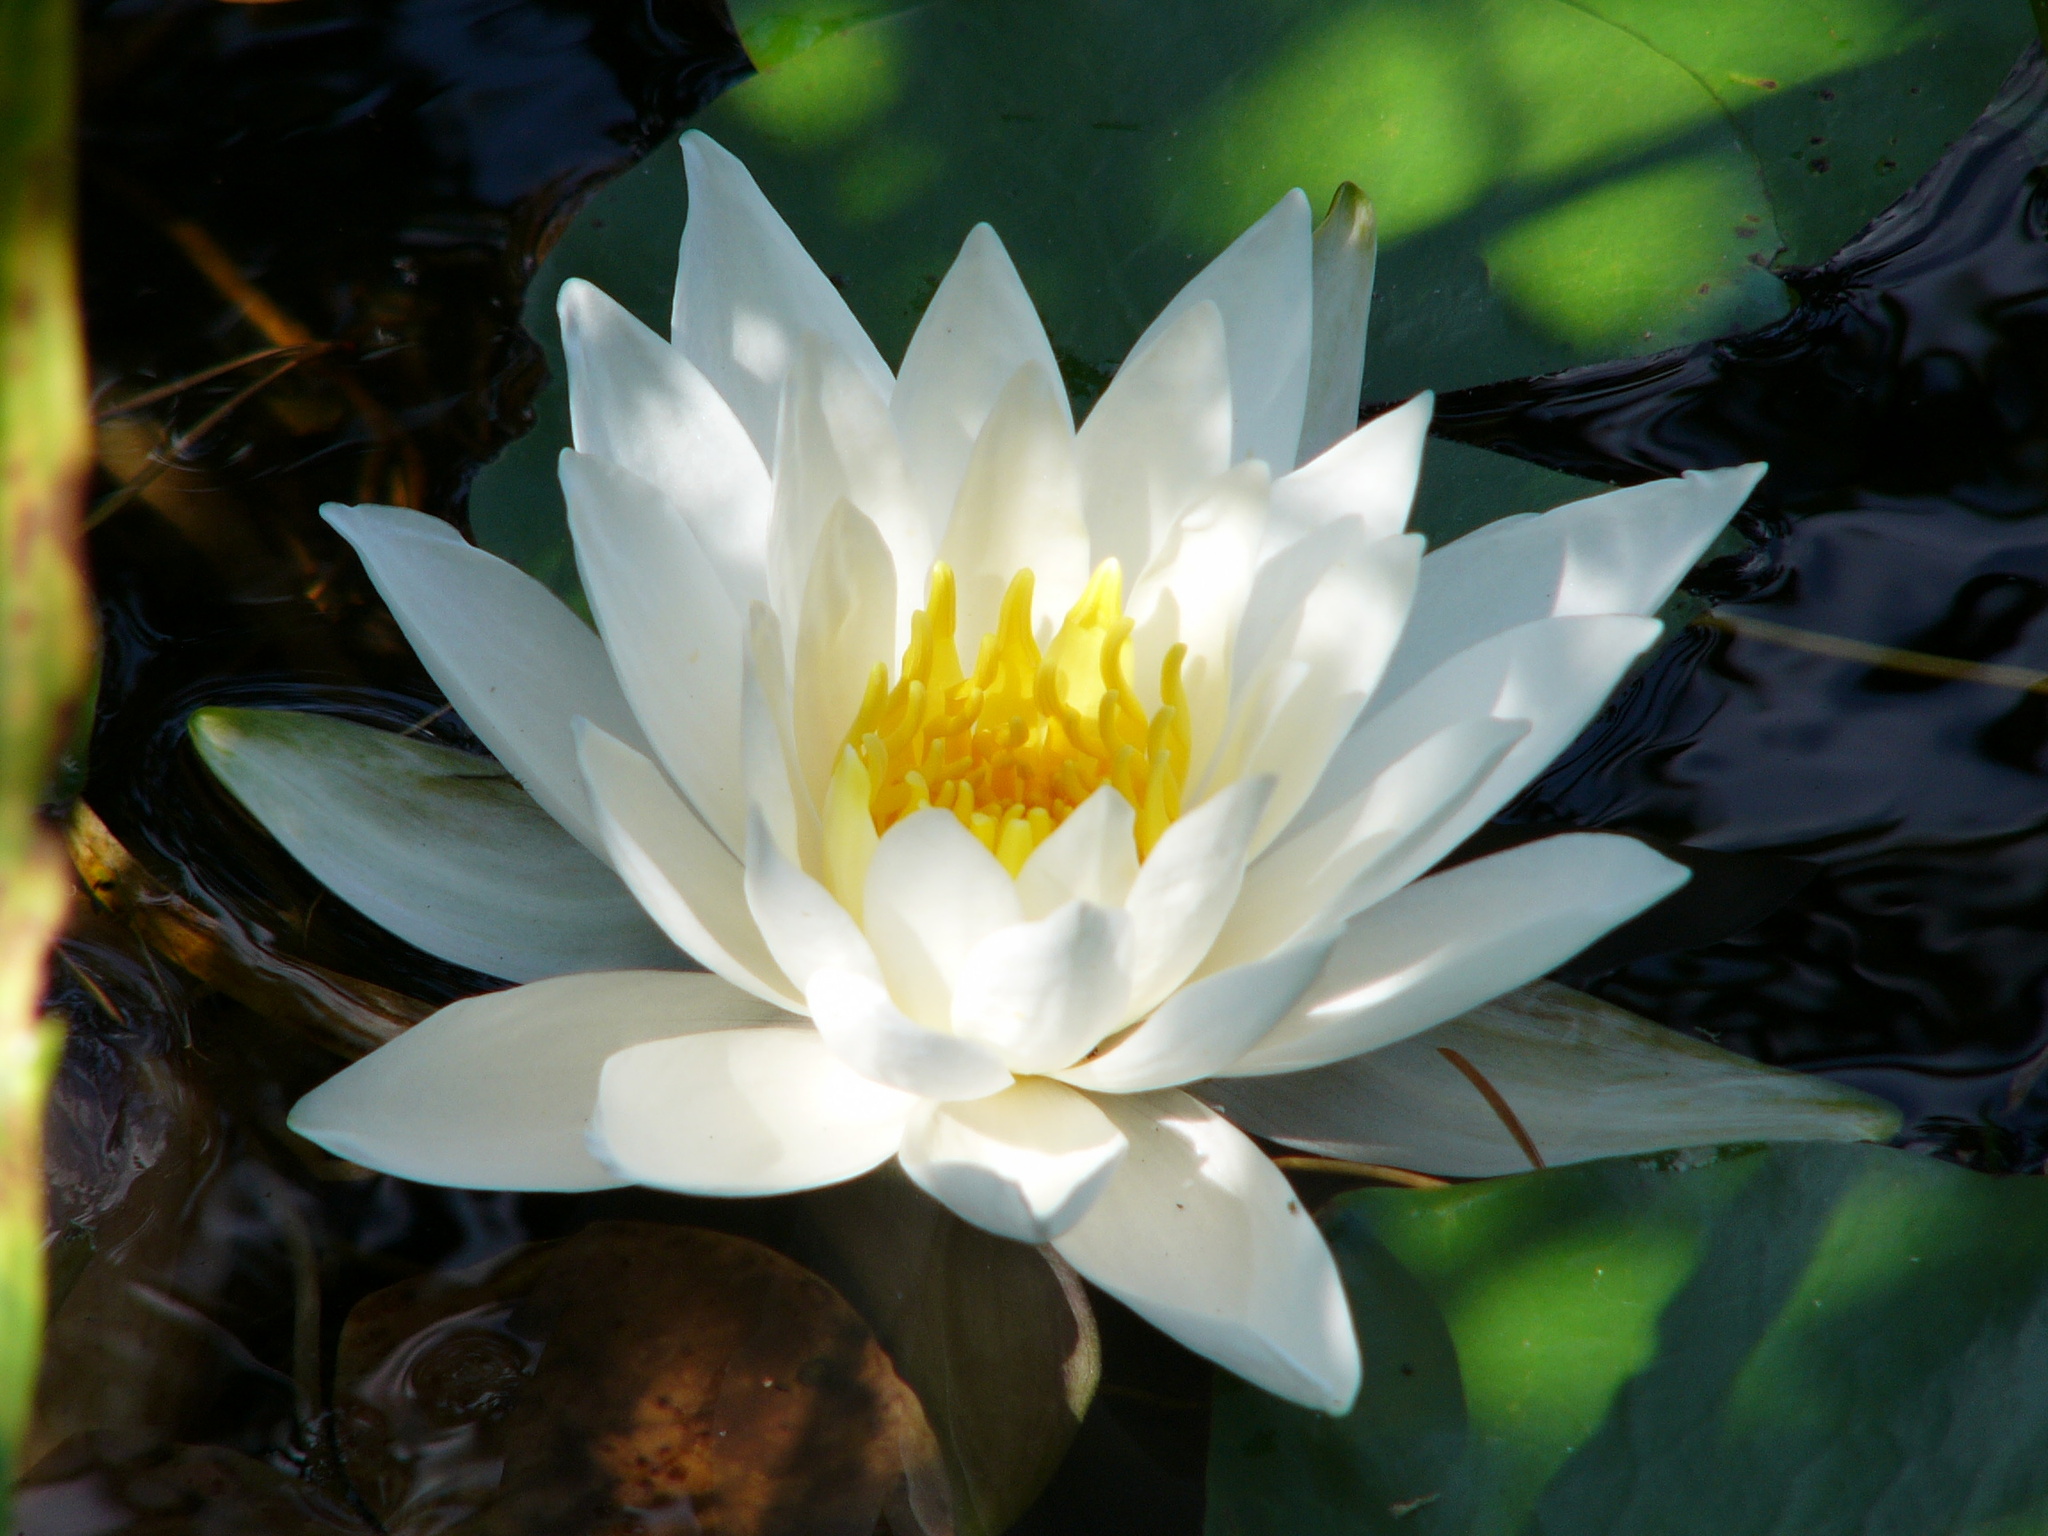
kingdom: Plantae
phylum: Tracheophyta
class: Magnoliopsida
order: Nymphaeales
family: Nymphaeaceae
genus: Nymphaea
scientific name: Nymphaea odorata
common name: Fragrant water-lily
